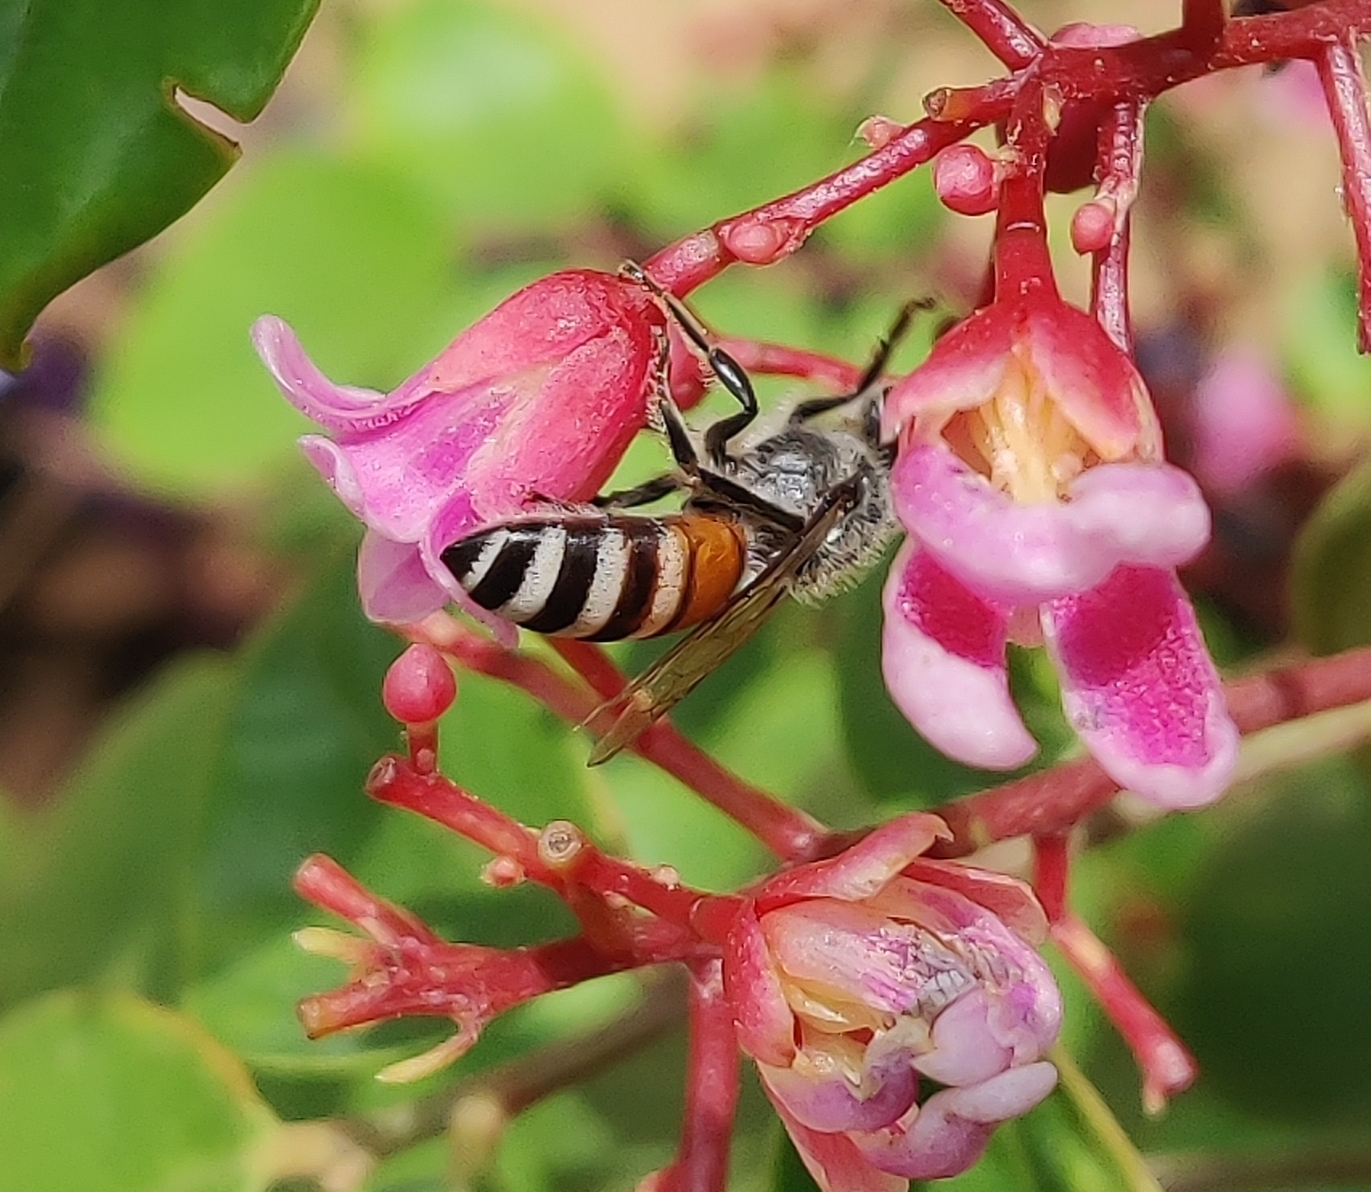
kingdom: Animalia
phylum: Arthropoda
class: Insecta
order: Hymenoptera
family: Apidae
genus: Apis
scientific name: Apis florea
